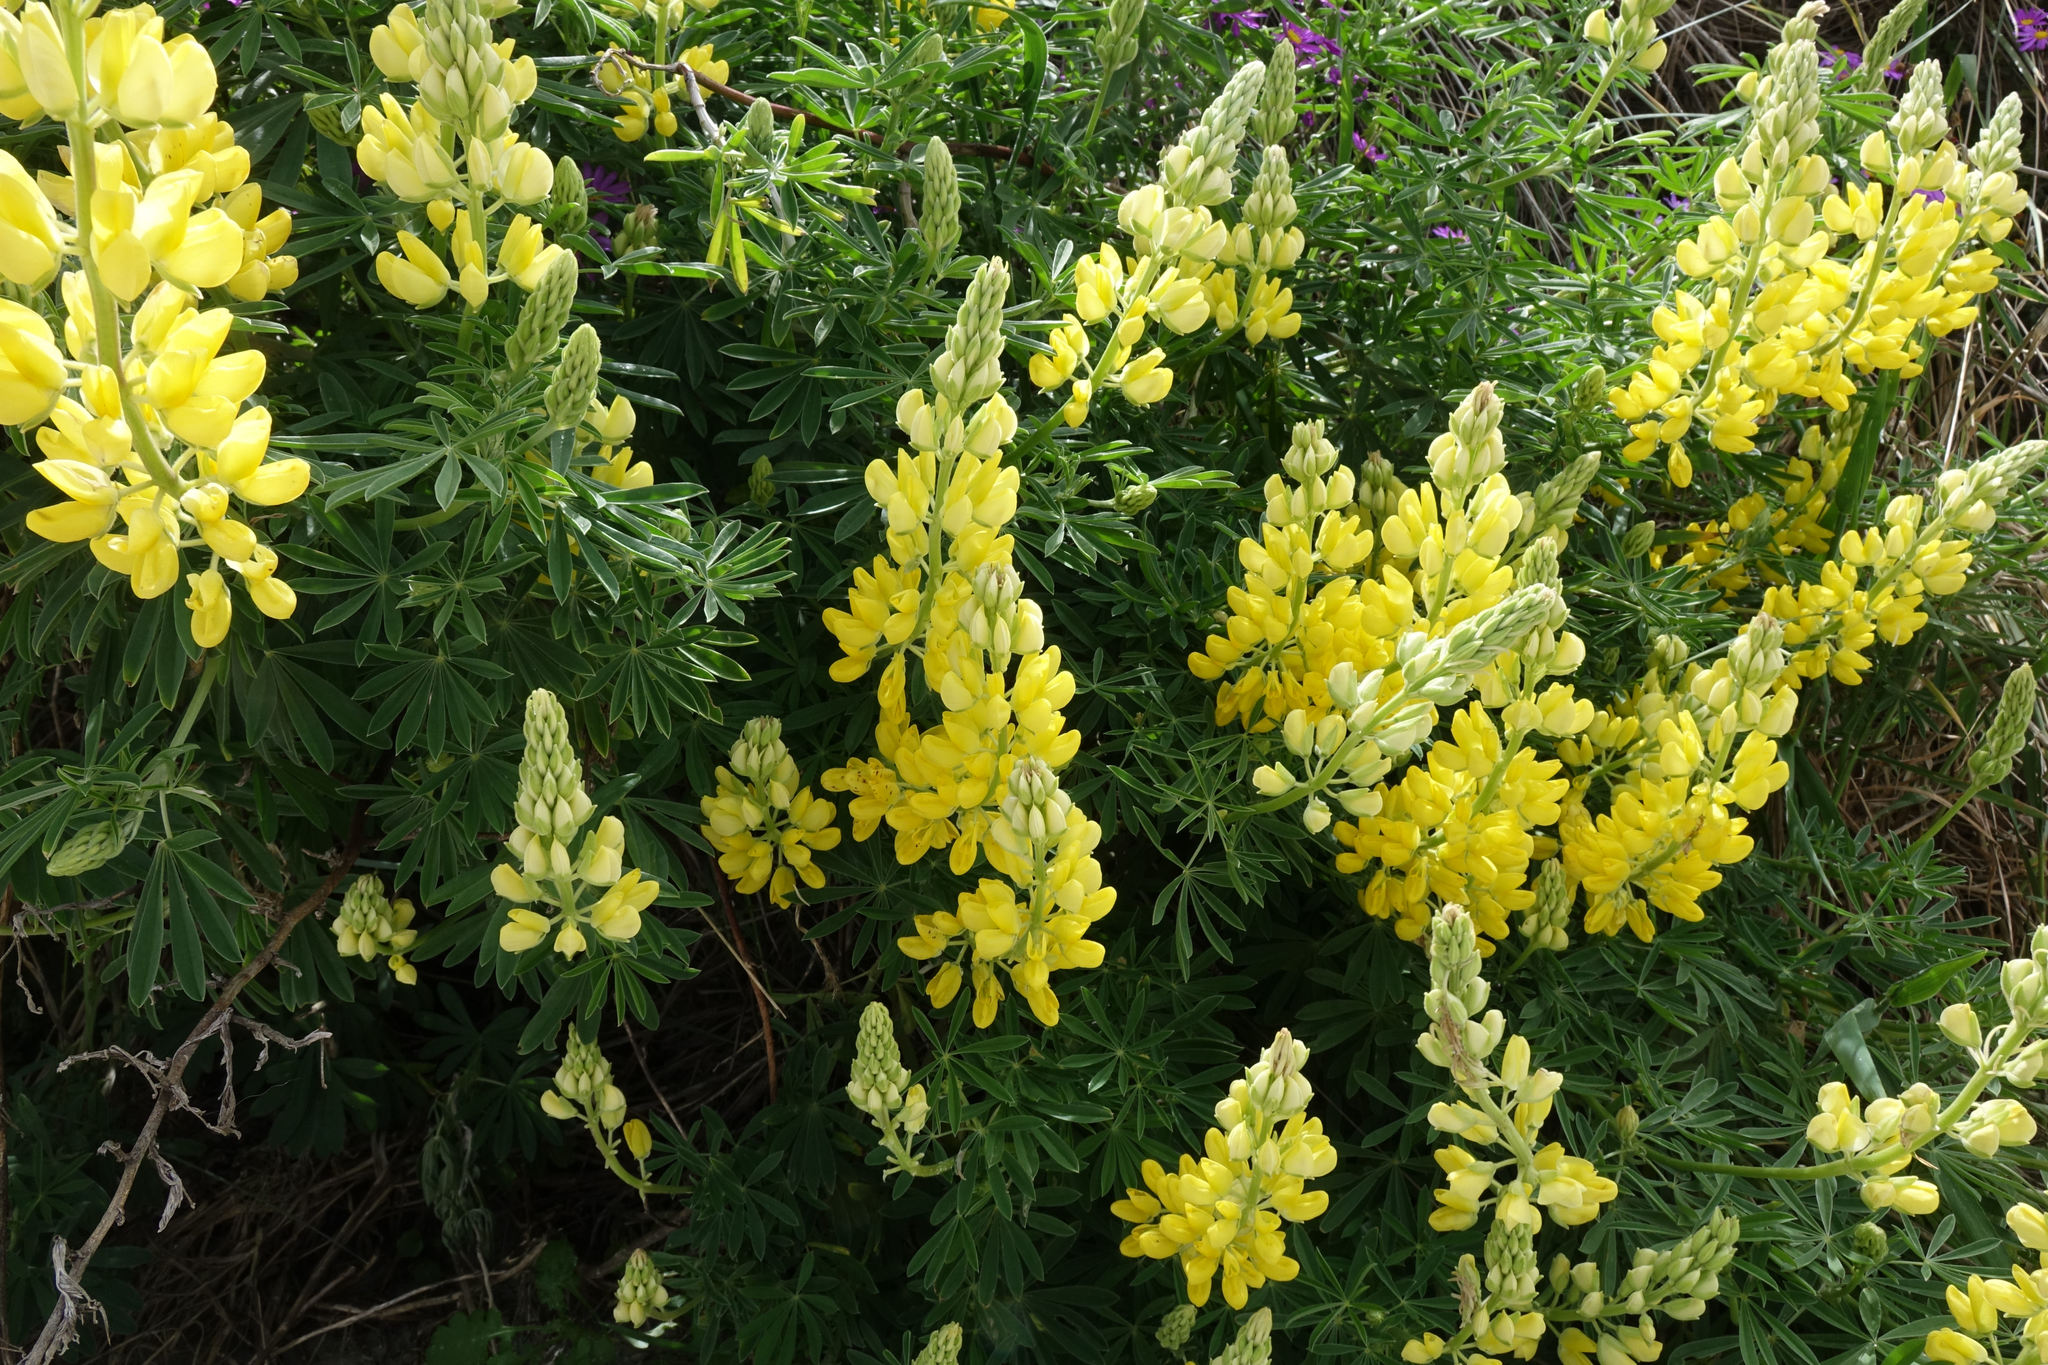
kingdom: Plantae
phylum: Tracheophyta
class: Magnoliopsida
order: Fabales
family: Fabaceae
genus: Lupinus
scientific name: Lupinus arboreus
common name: Yellow bush lupine
